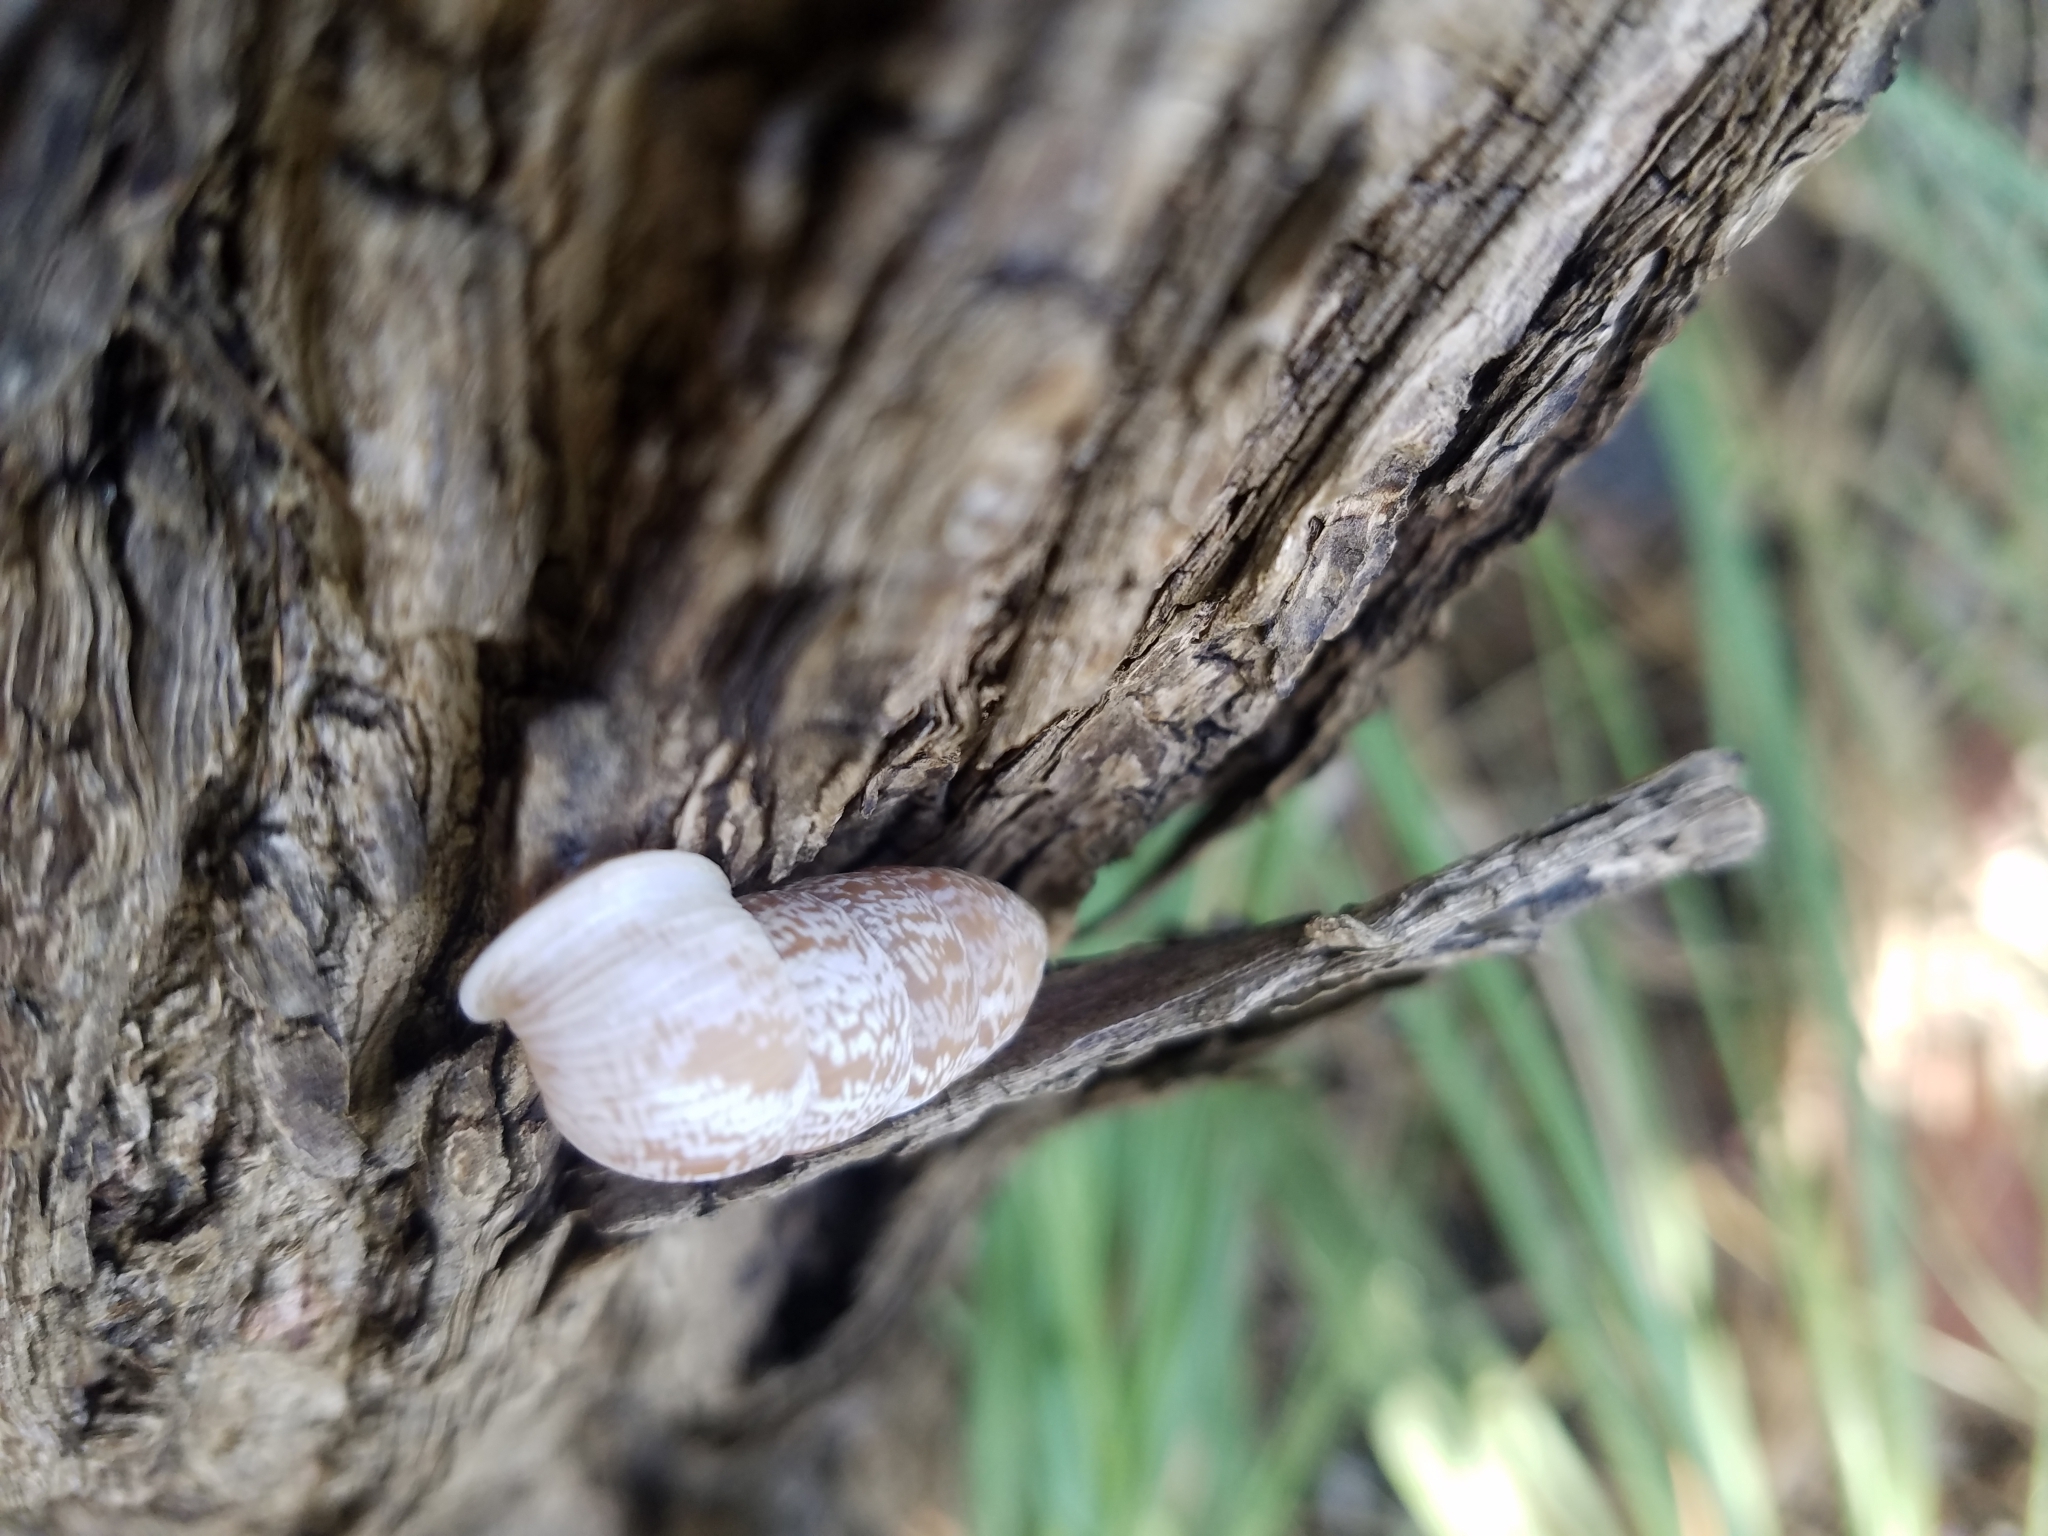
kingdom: Animalia
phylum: Mollusca
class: Gastropoda
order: Stylommatophora
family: Cerionidae
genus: Cerion
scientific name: Cerion tridentatum
